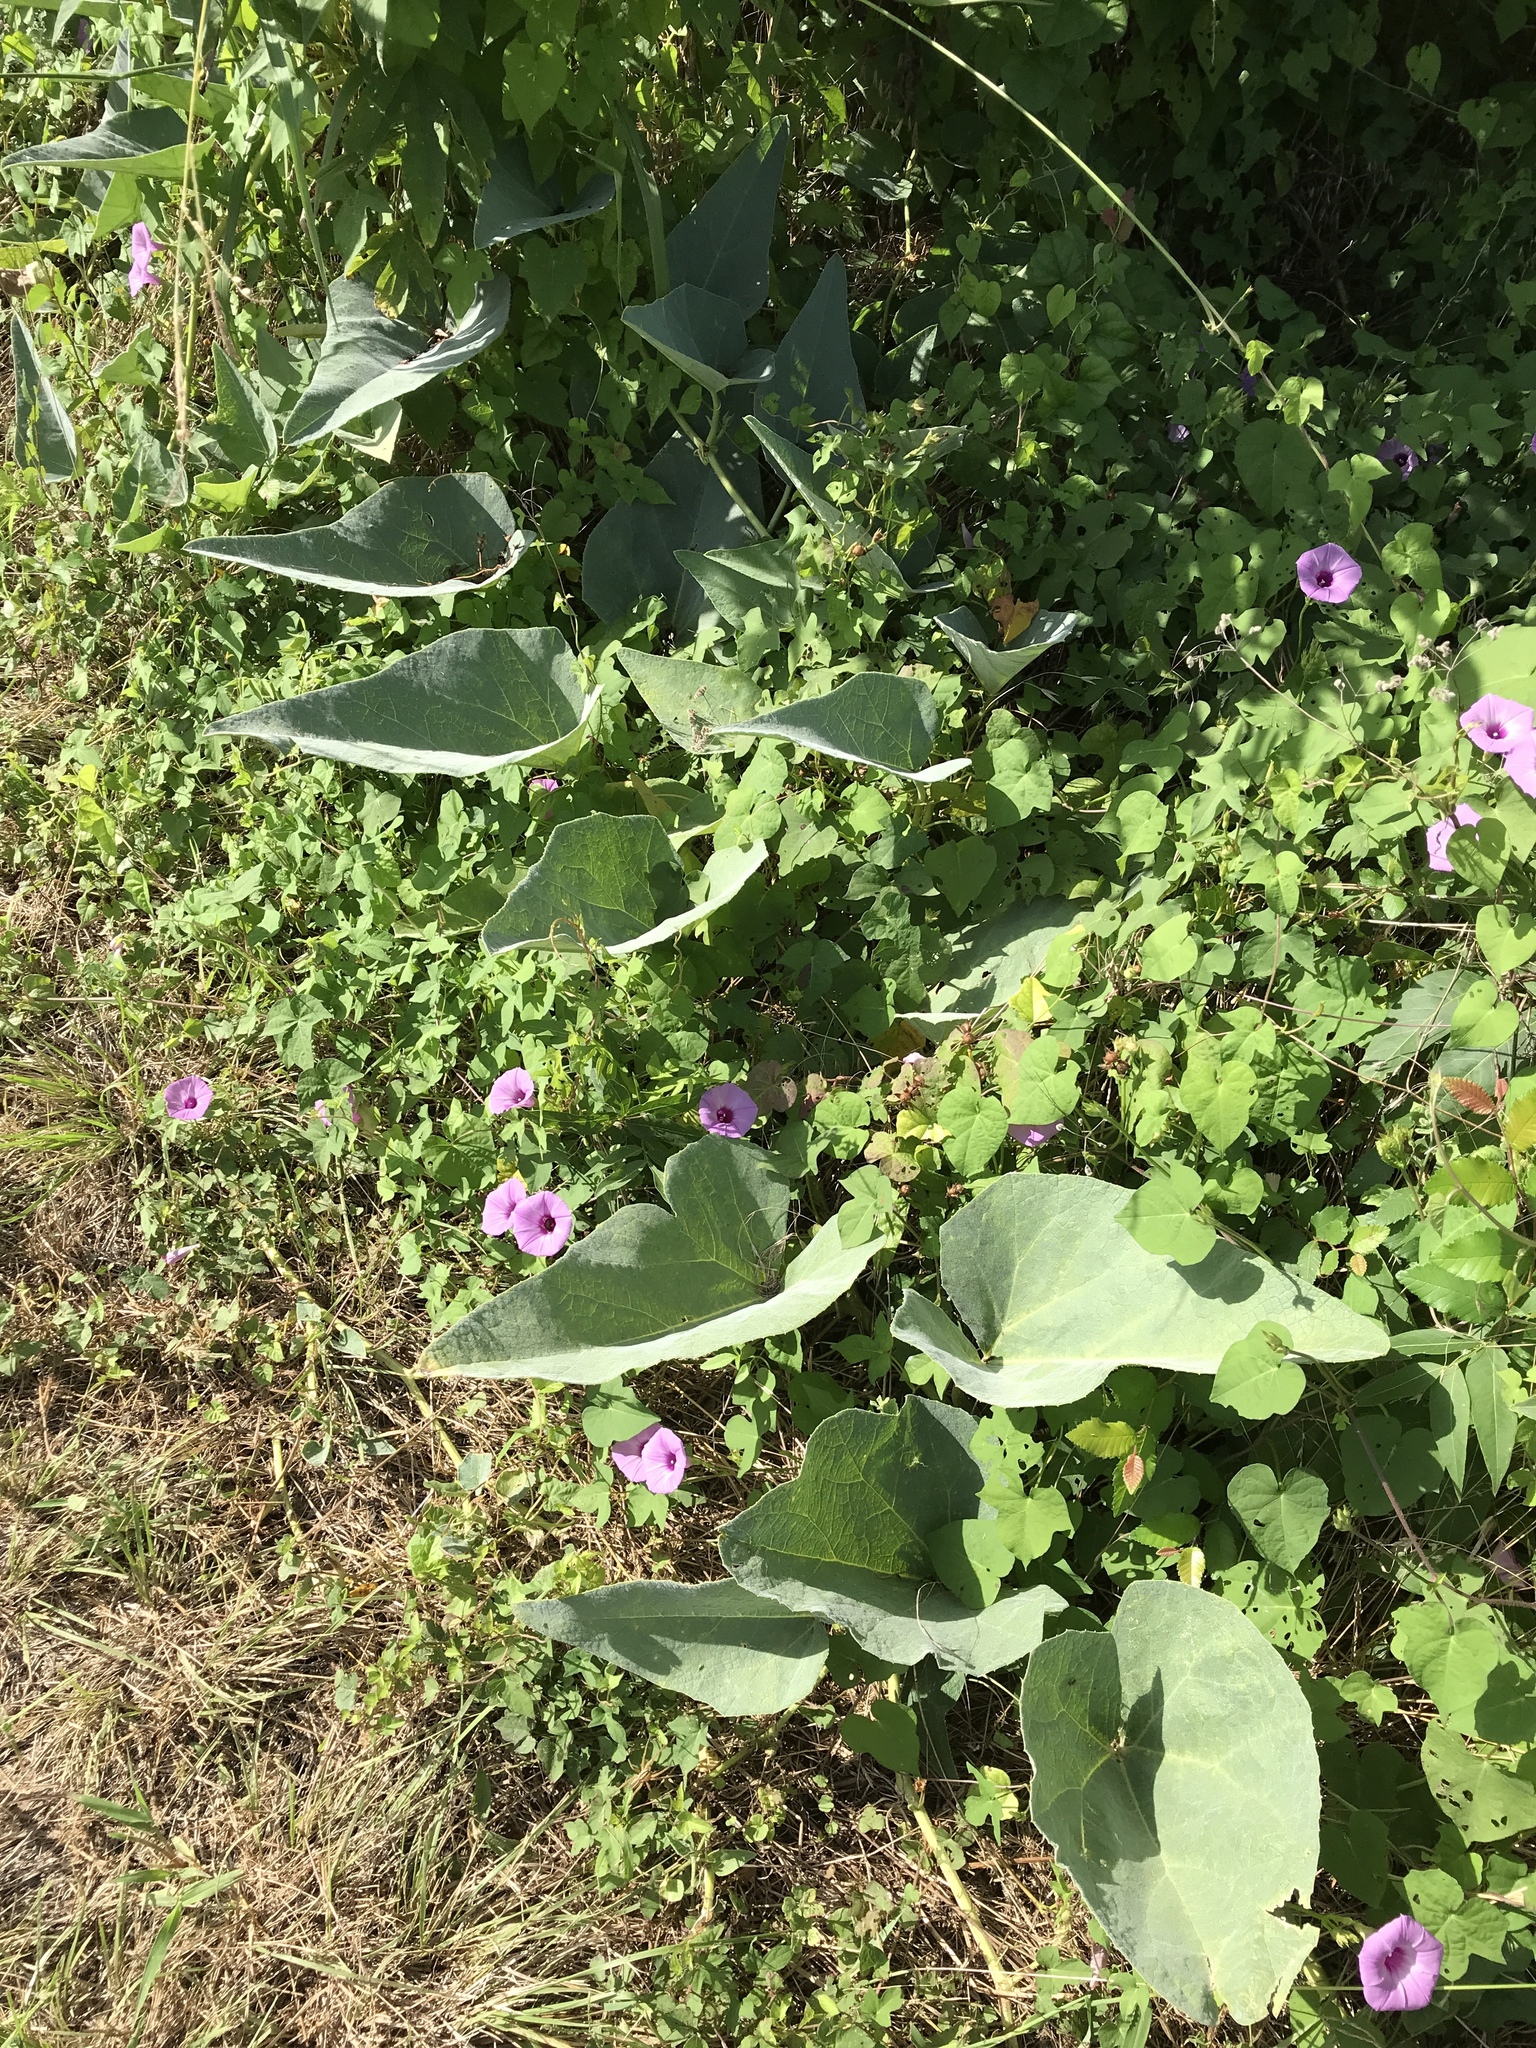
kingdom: Plantae
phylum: Tracheophyta
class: Magnoliopsida
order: Cucurbitales
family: Cucurbitaceae
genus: Cucurbita
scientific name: Cucurbita foetidissima
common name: Buffalo gourd
